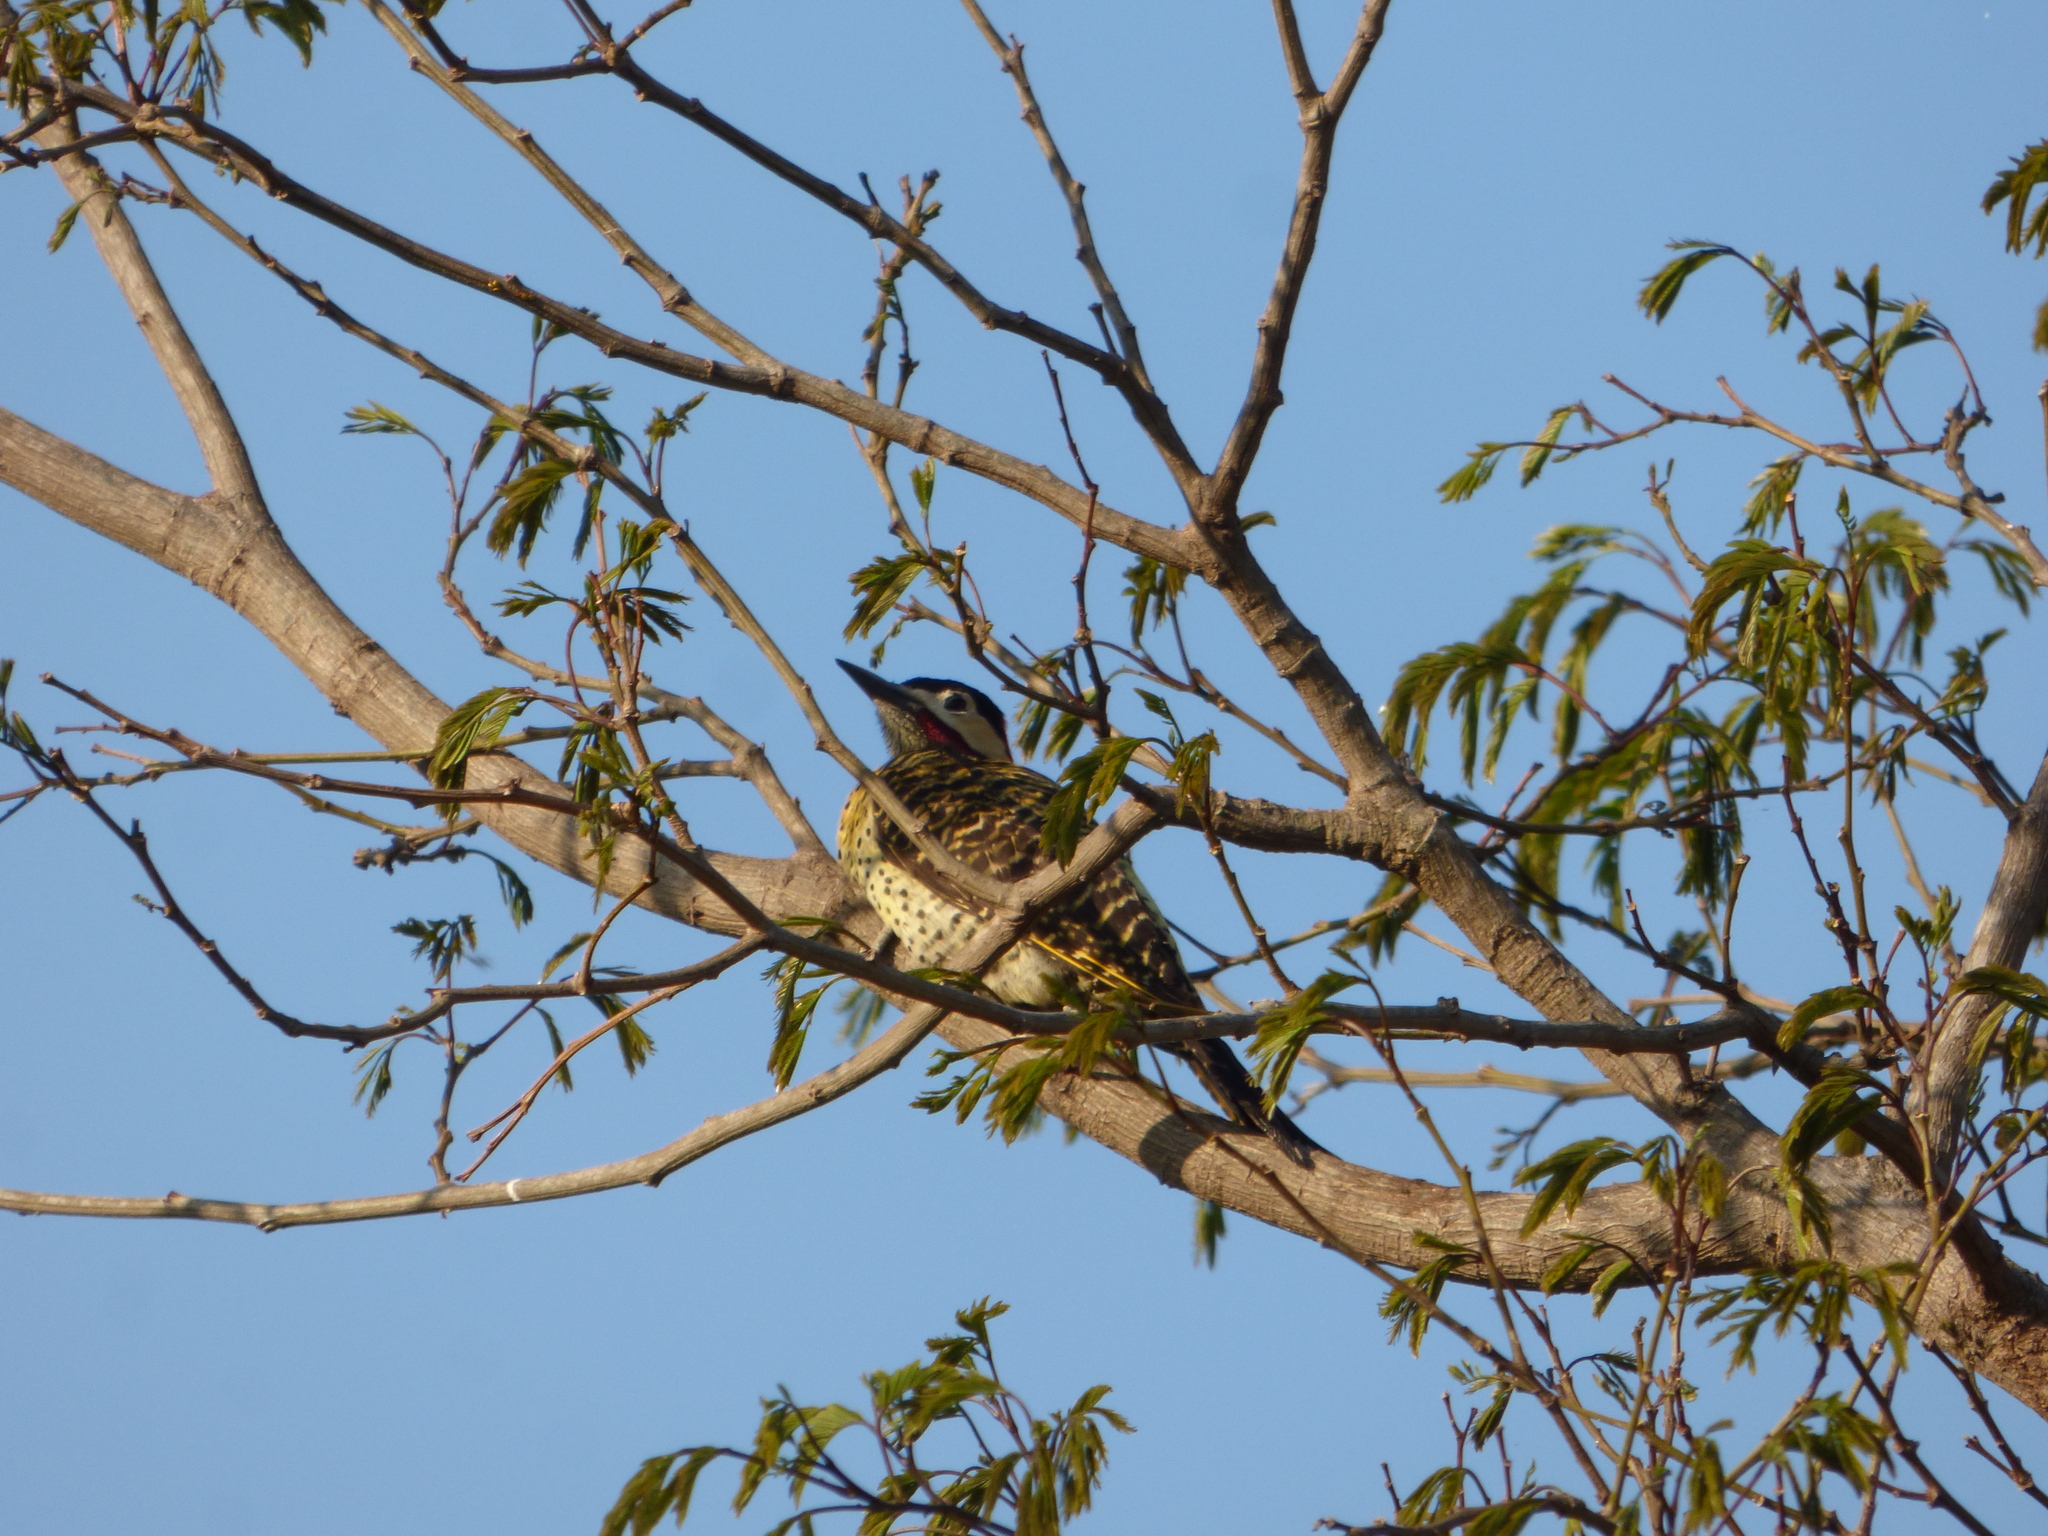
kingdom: Animalia
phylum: Chordata
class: Aves
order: Piciformes
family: Picidae
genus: Colaptes
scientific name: Colaptes melanochloros
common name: Green-barred woodpecker
